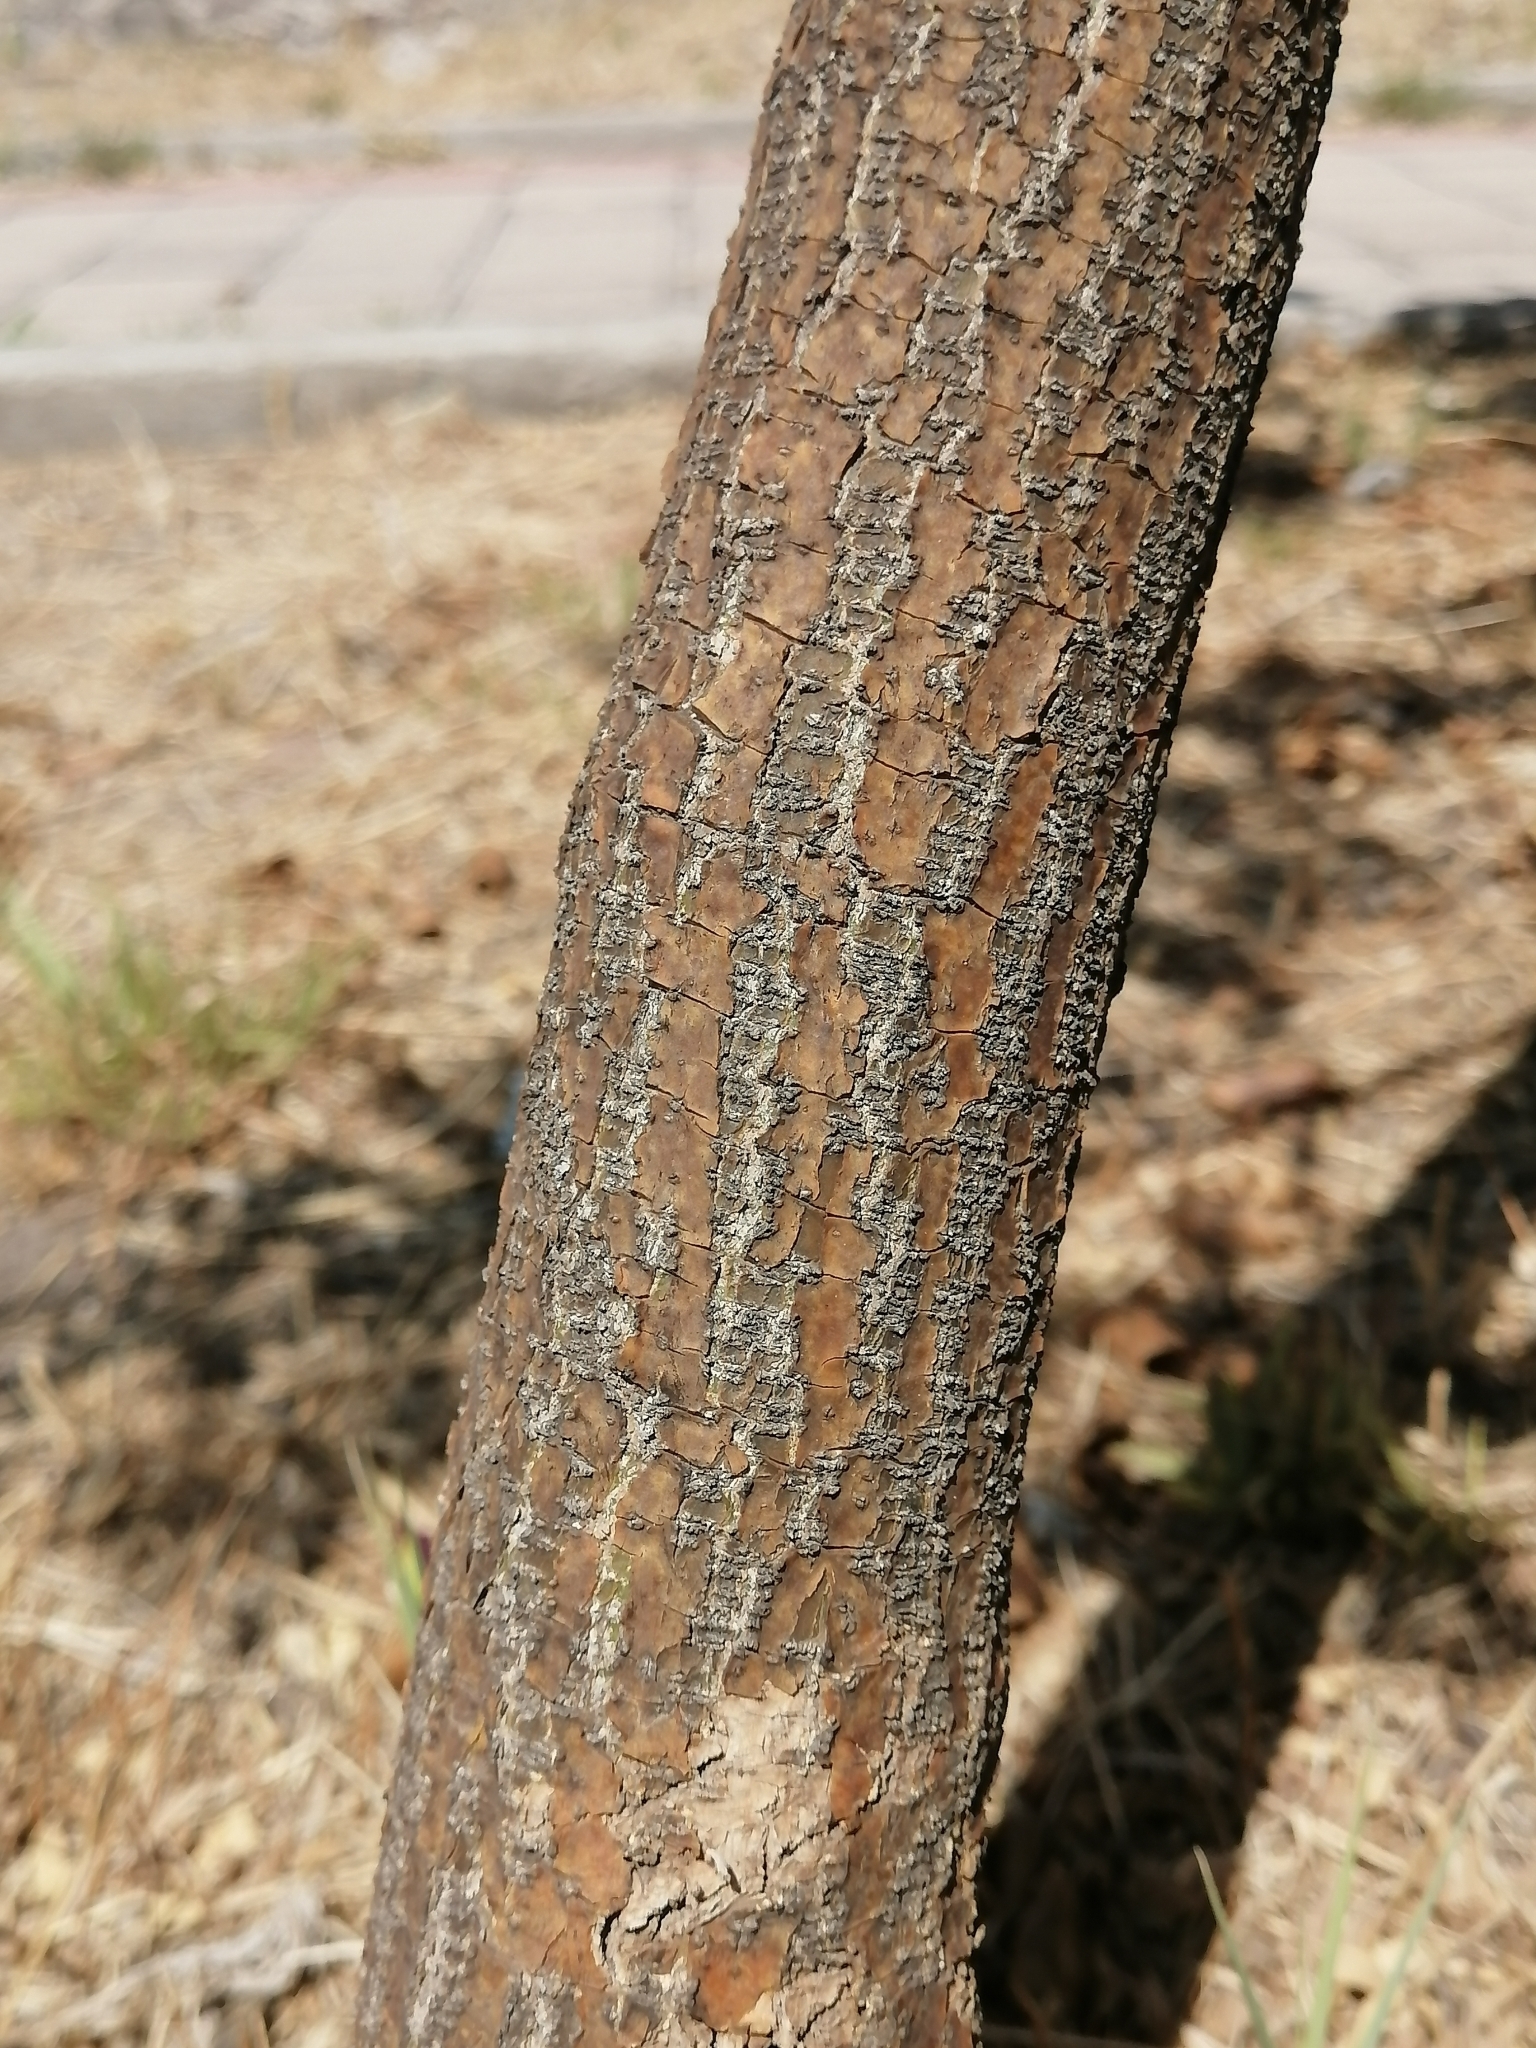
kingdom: Plantae
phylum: Tracheophyta
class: Magnoliopsida
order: Fabales
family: Fabaceae
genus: Brongniartia
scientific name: Brongniartia lupinoides
